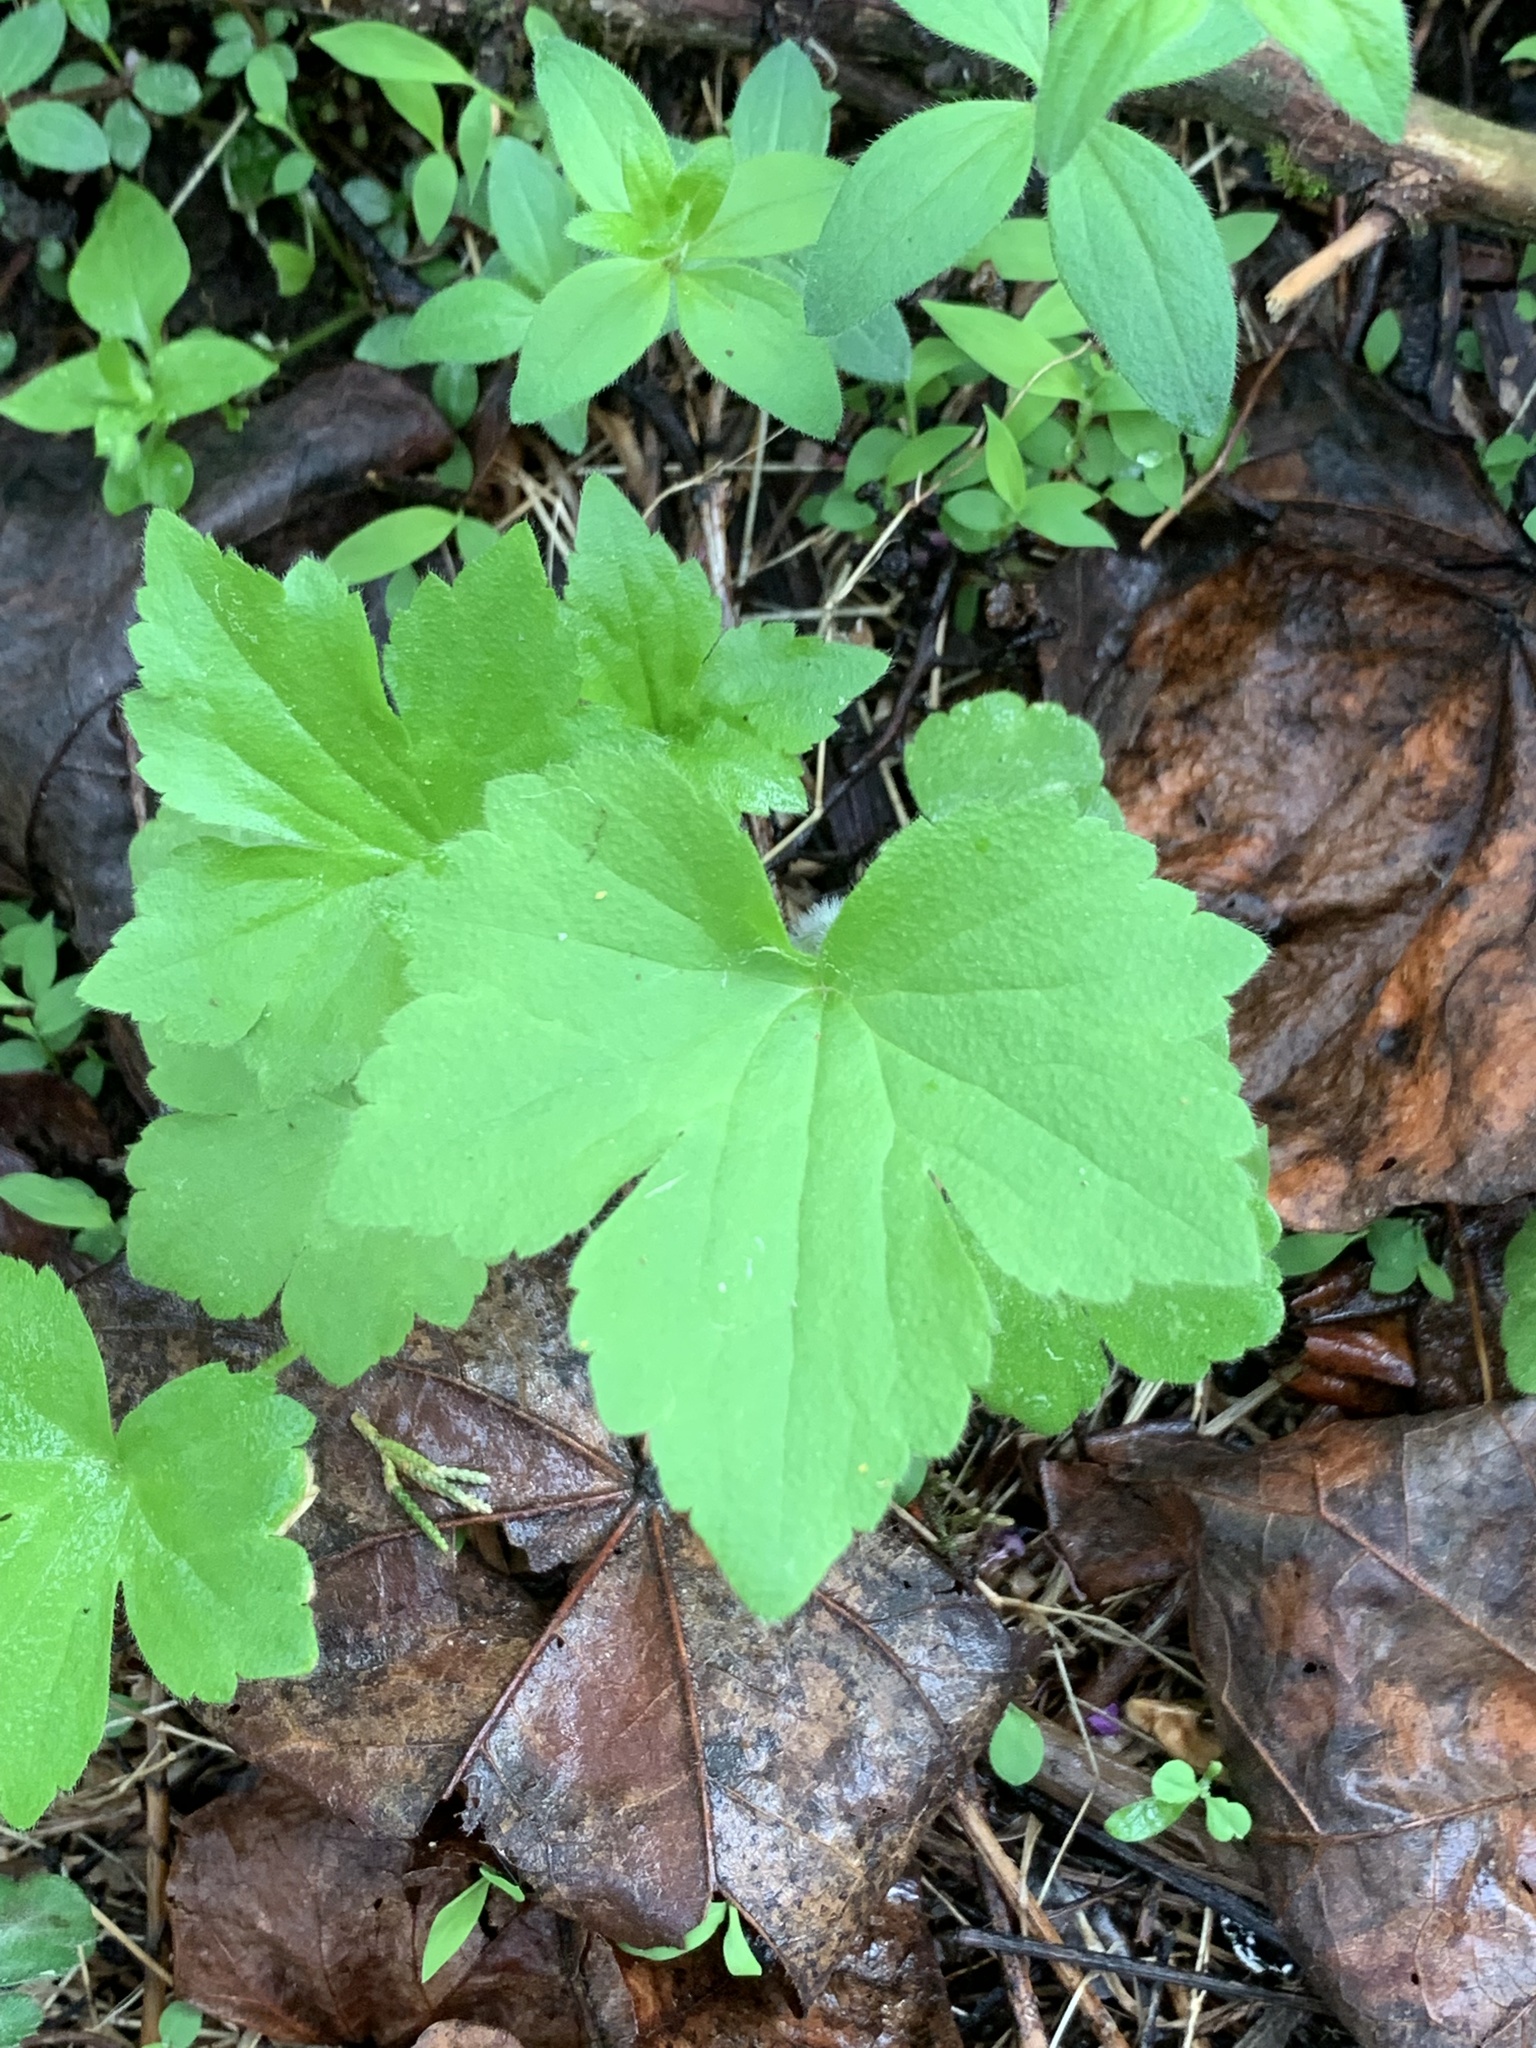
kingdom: Plantae
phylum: Tracheophyta
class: Magnoliopsida
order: Ranunculales
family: Ranunculaceae
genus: Ranunculus
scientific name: Ranunculus recurvatus
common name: Blisterwort
